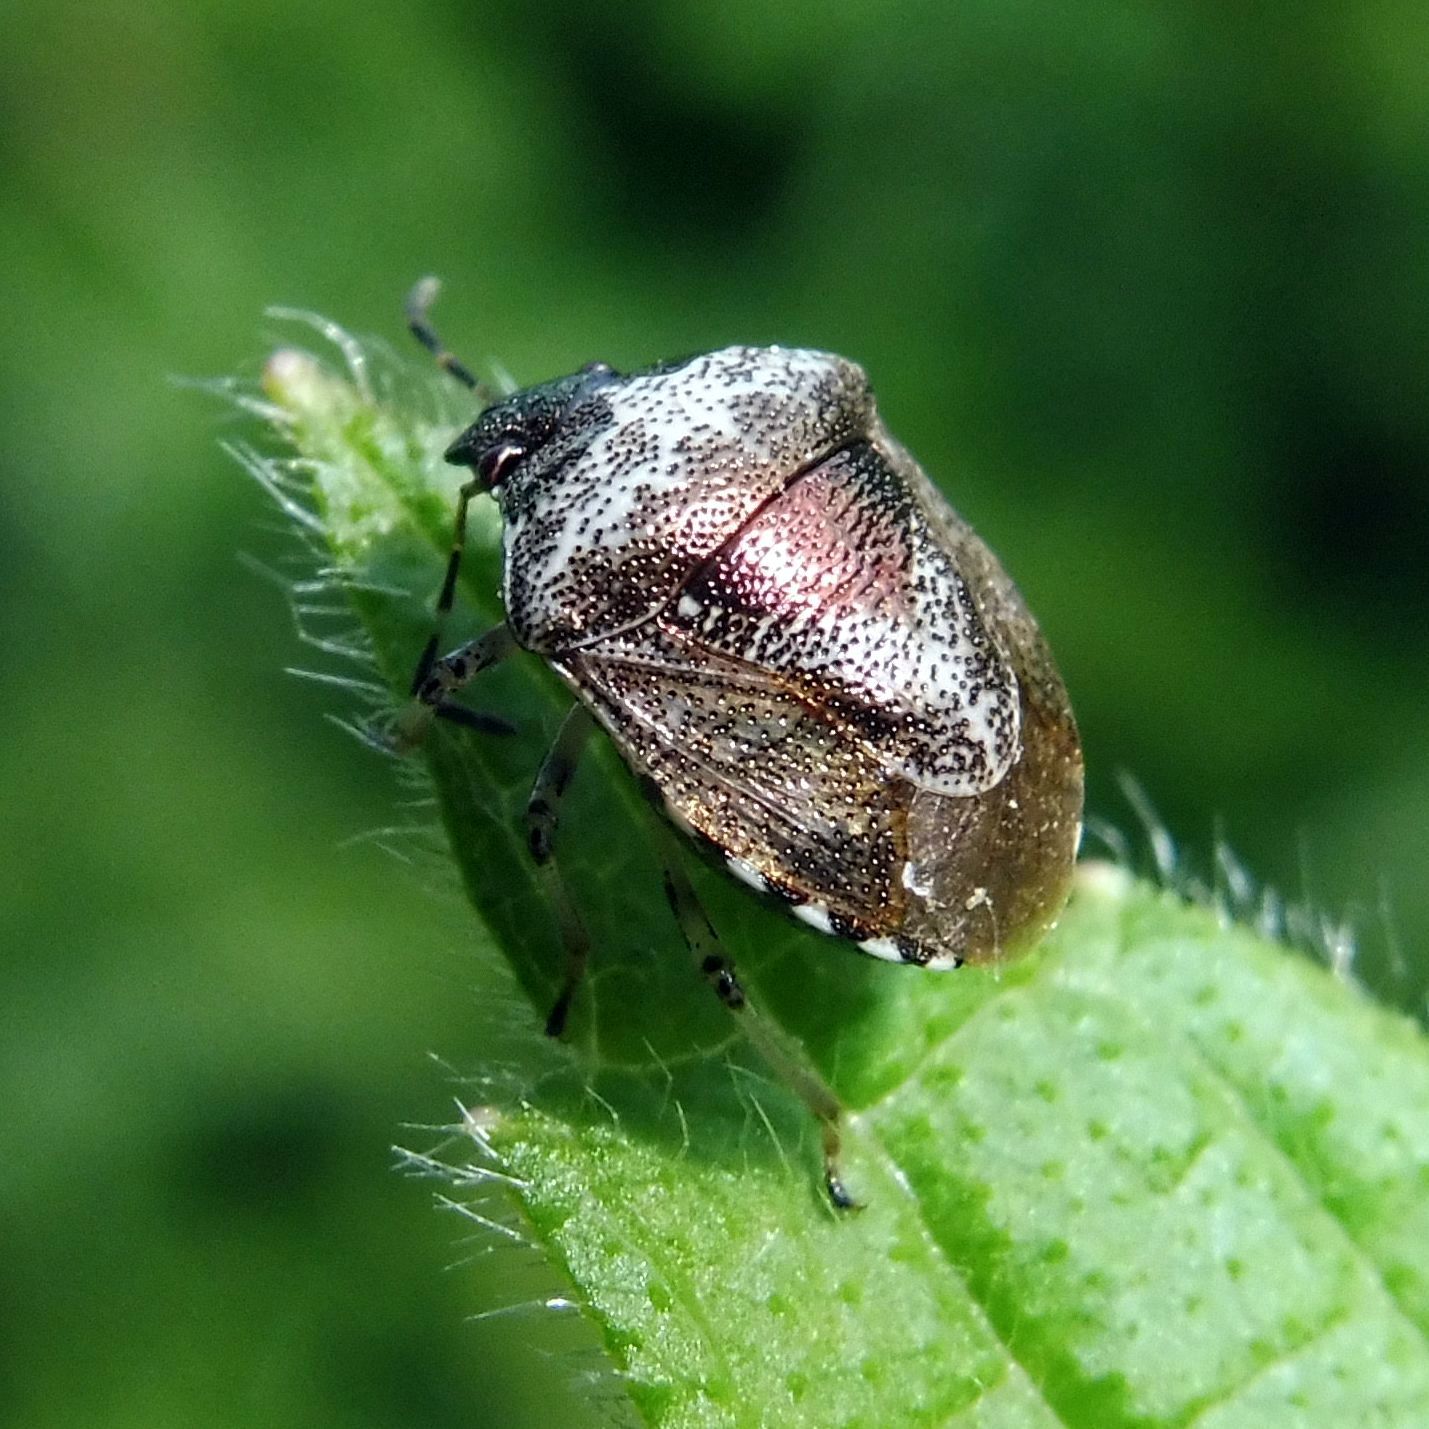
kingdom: Animalia
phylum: Arthropoda
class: Insecta
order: Hemiptera
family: Pentatomidae
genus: Eysarcoris
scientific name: Eysarcoris venustissimus
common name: Woundwort shieldbug
